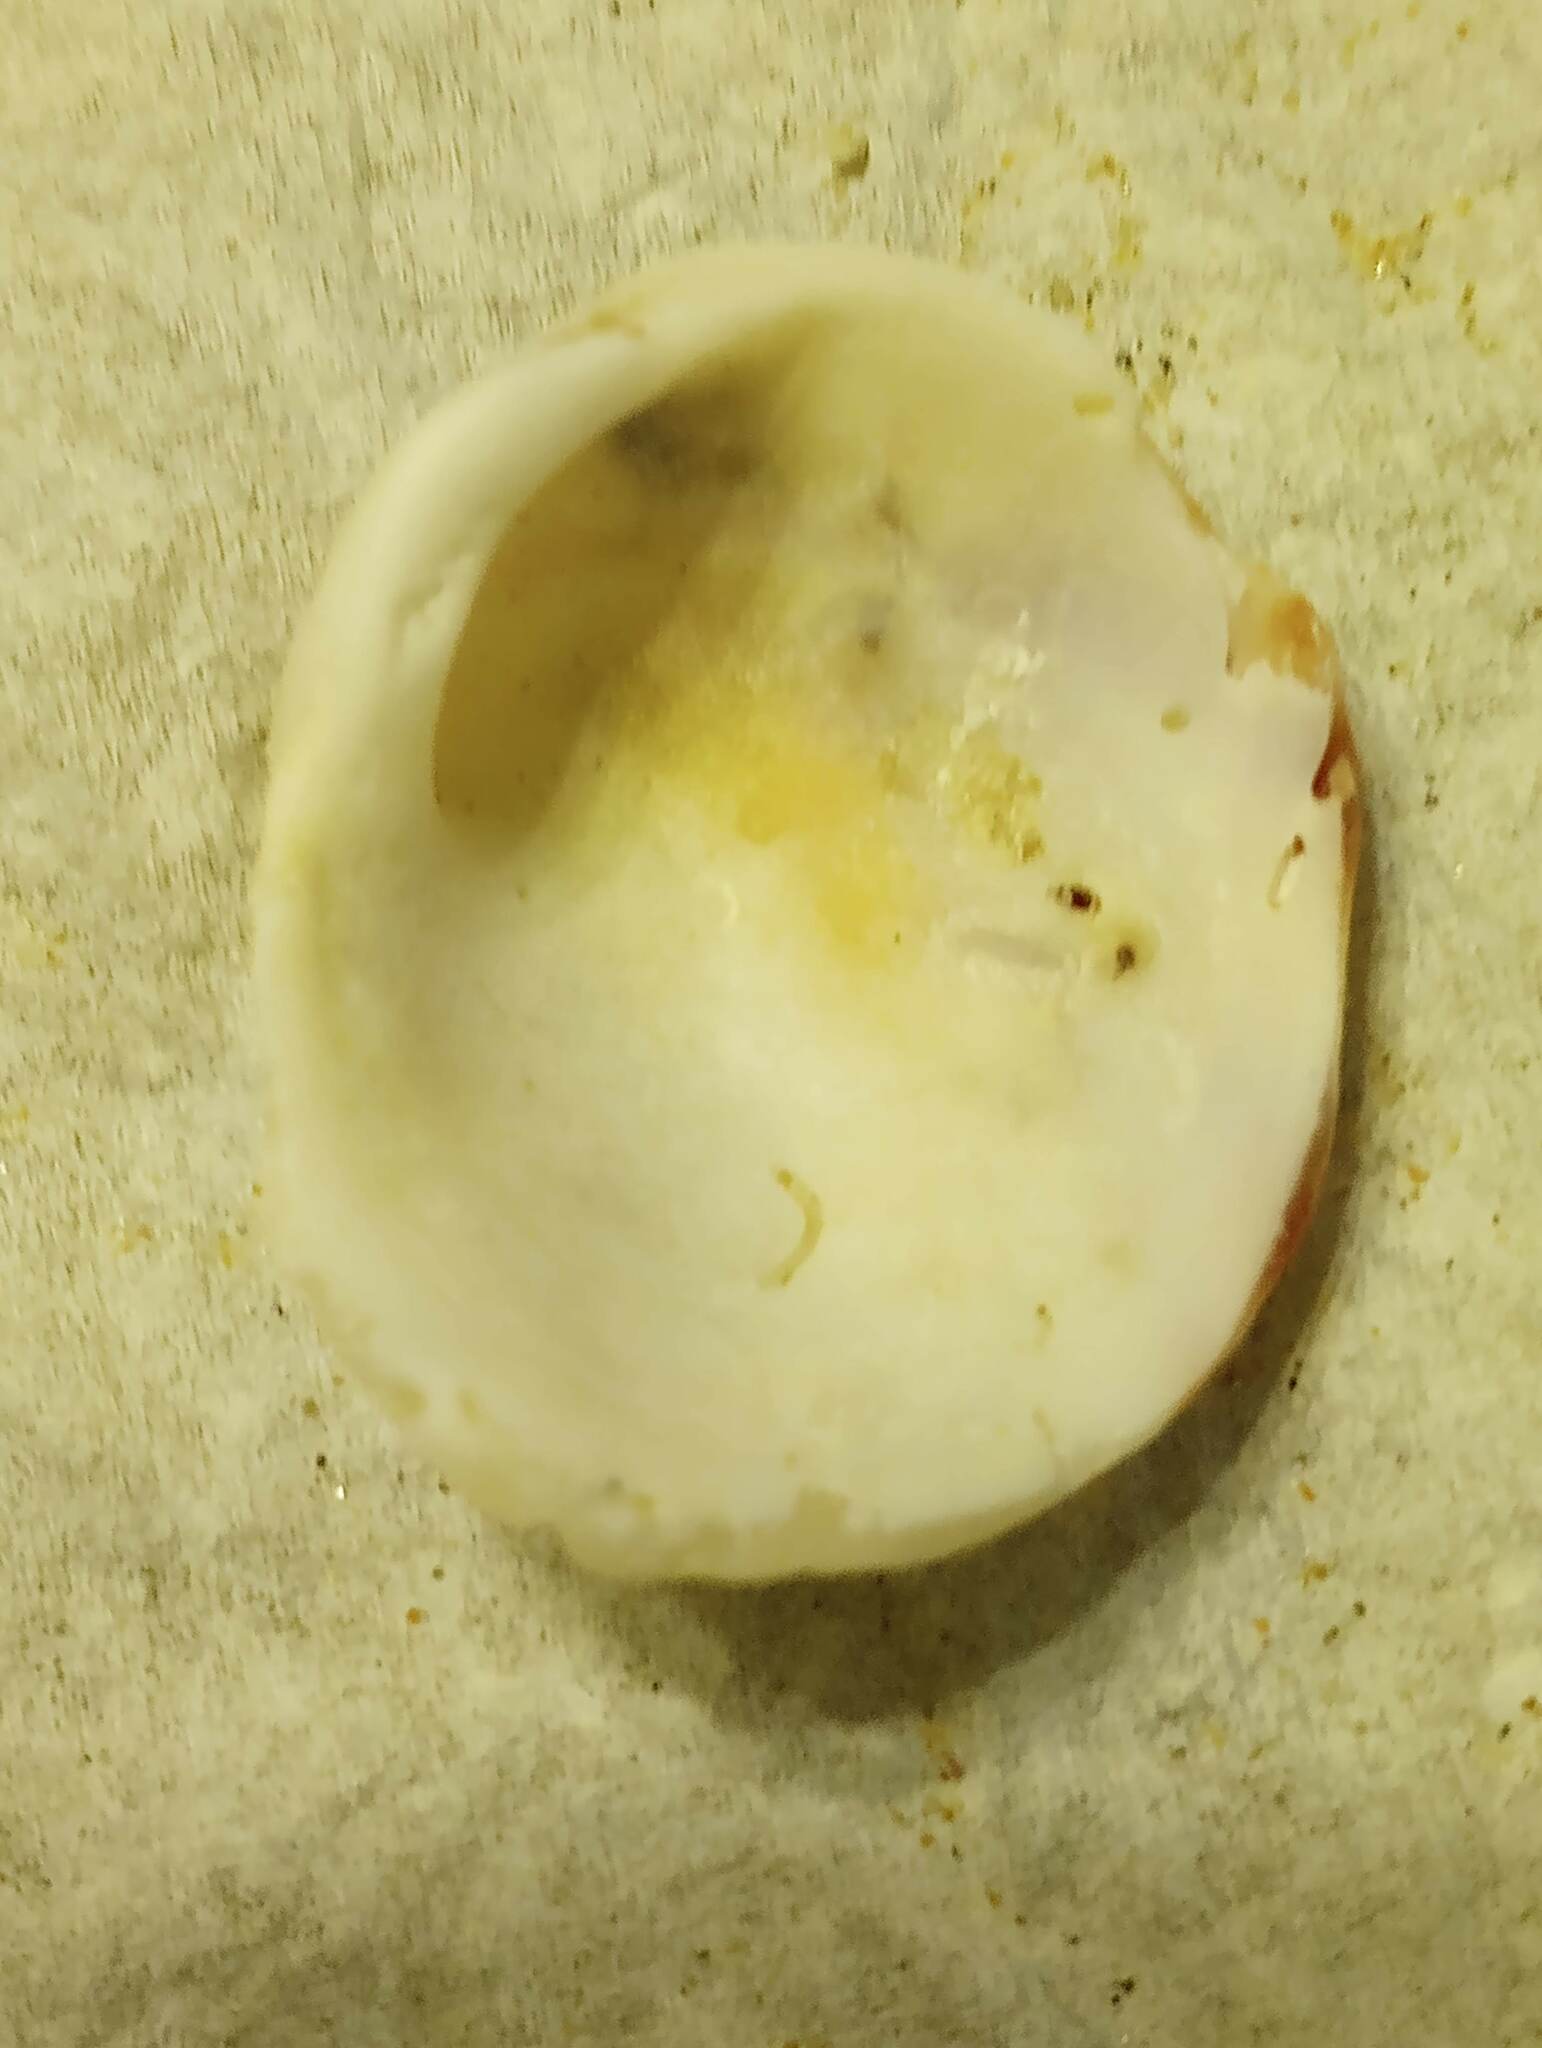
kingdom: Animalia
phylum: Mollusca
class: Bivalvia
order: Venerida
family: Chamidae
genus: Chama
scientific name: Chama arcana
